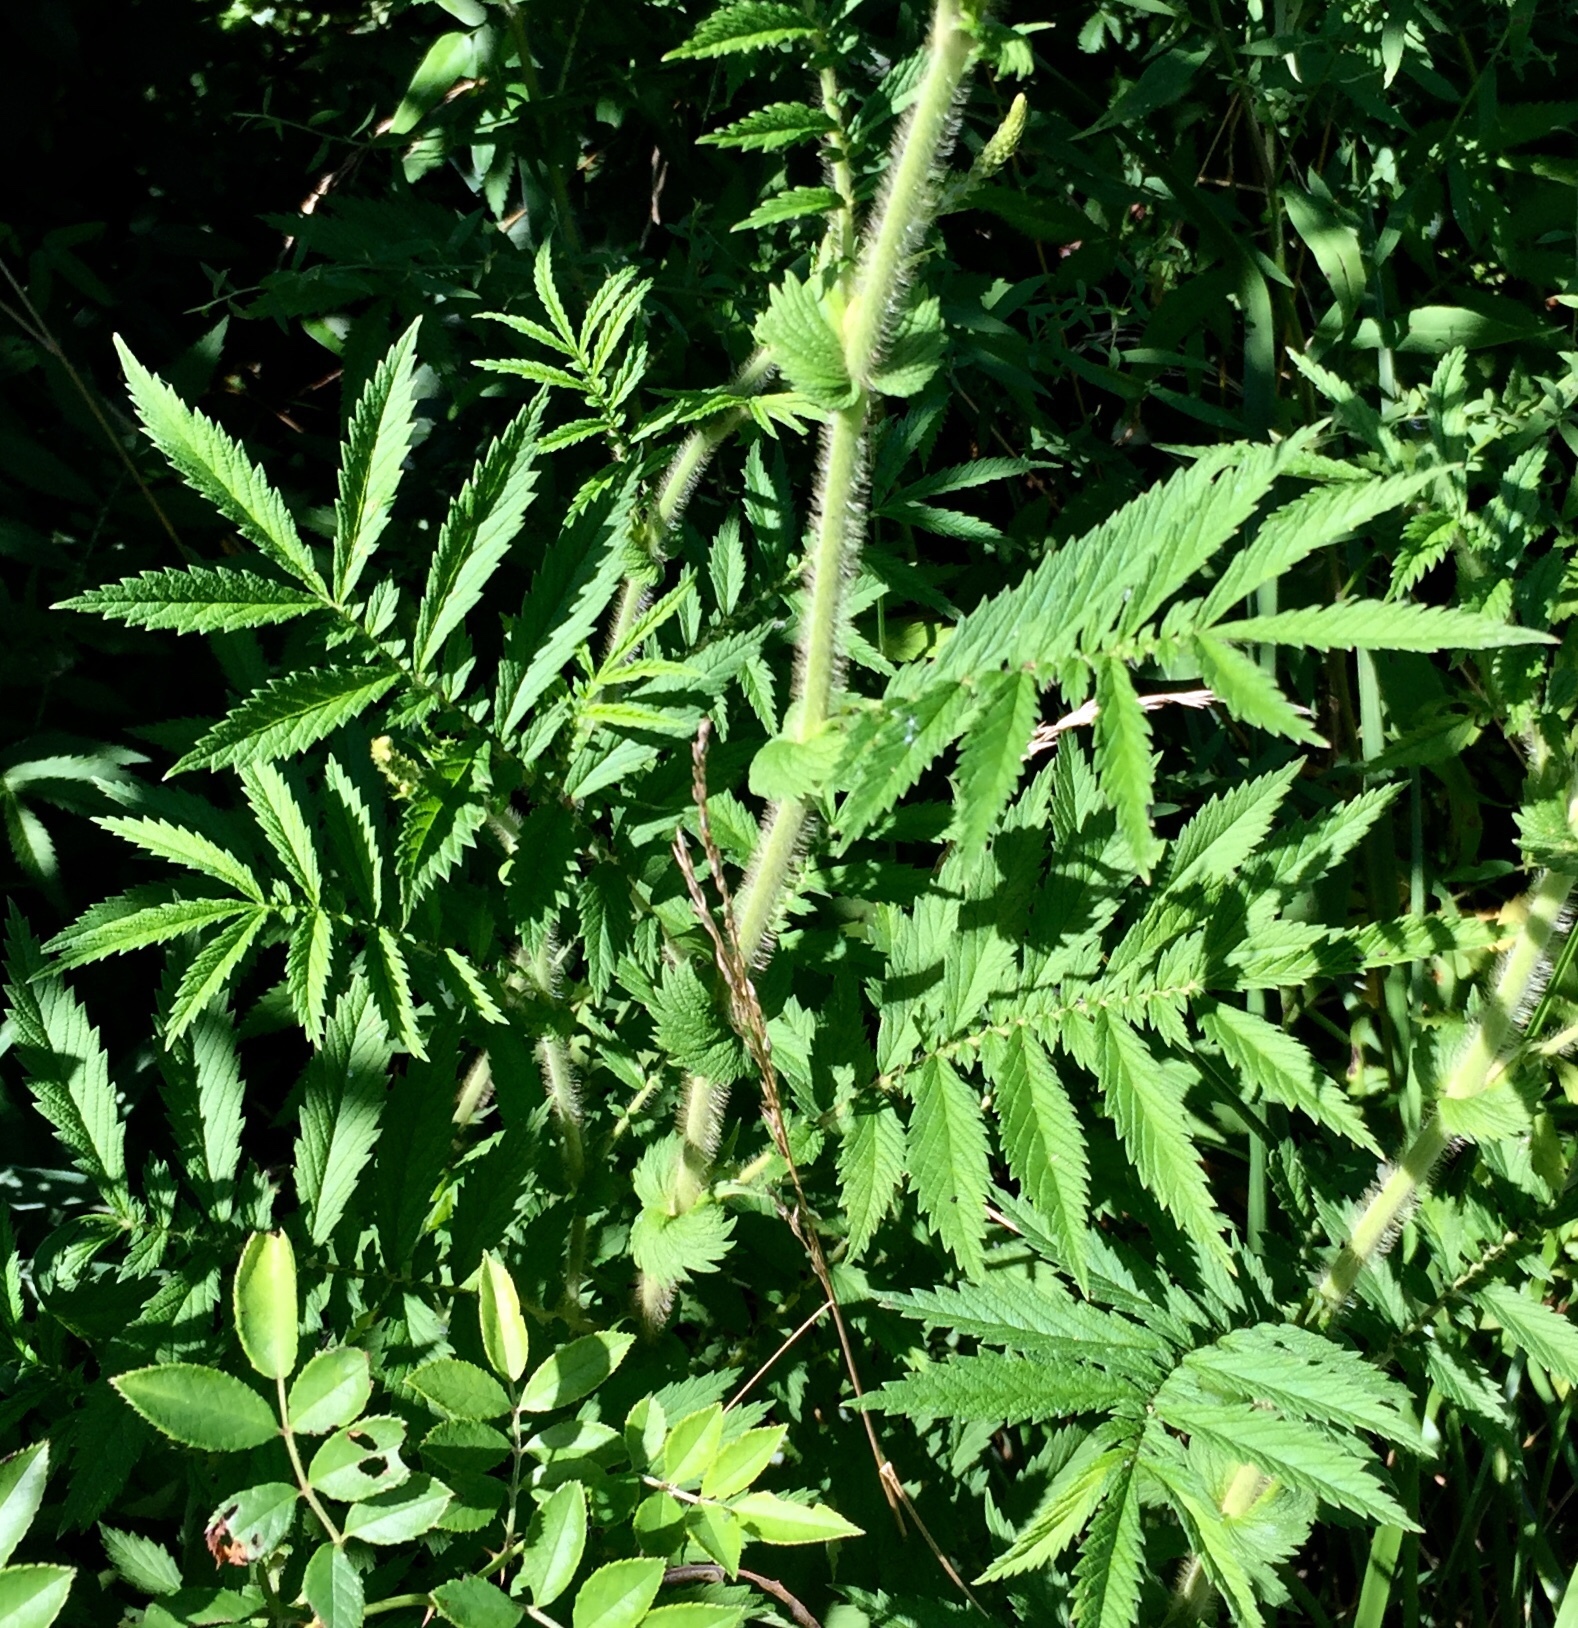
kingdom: Plantae
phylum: Tracheophyta
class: Magnoliopsida
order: Rosales
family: Rosaceae
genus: Agrimonia
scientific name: Agrimonia parviflora
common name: Harvest-lice
